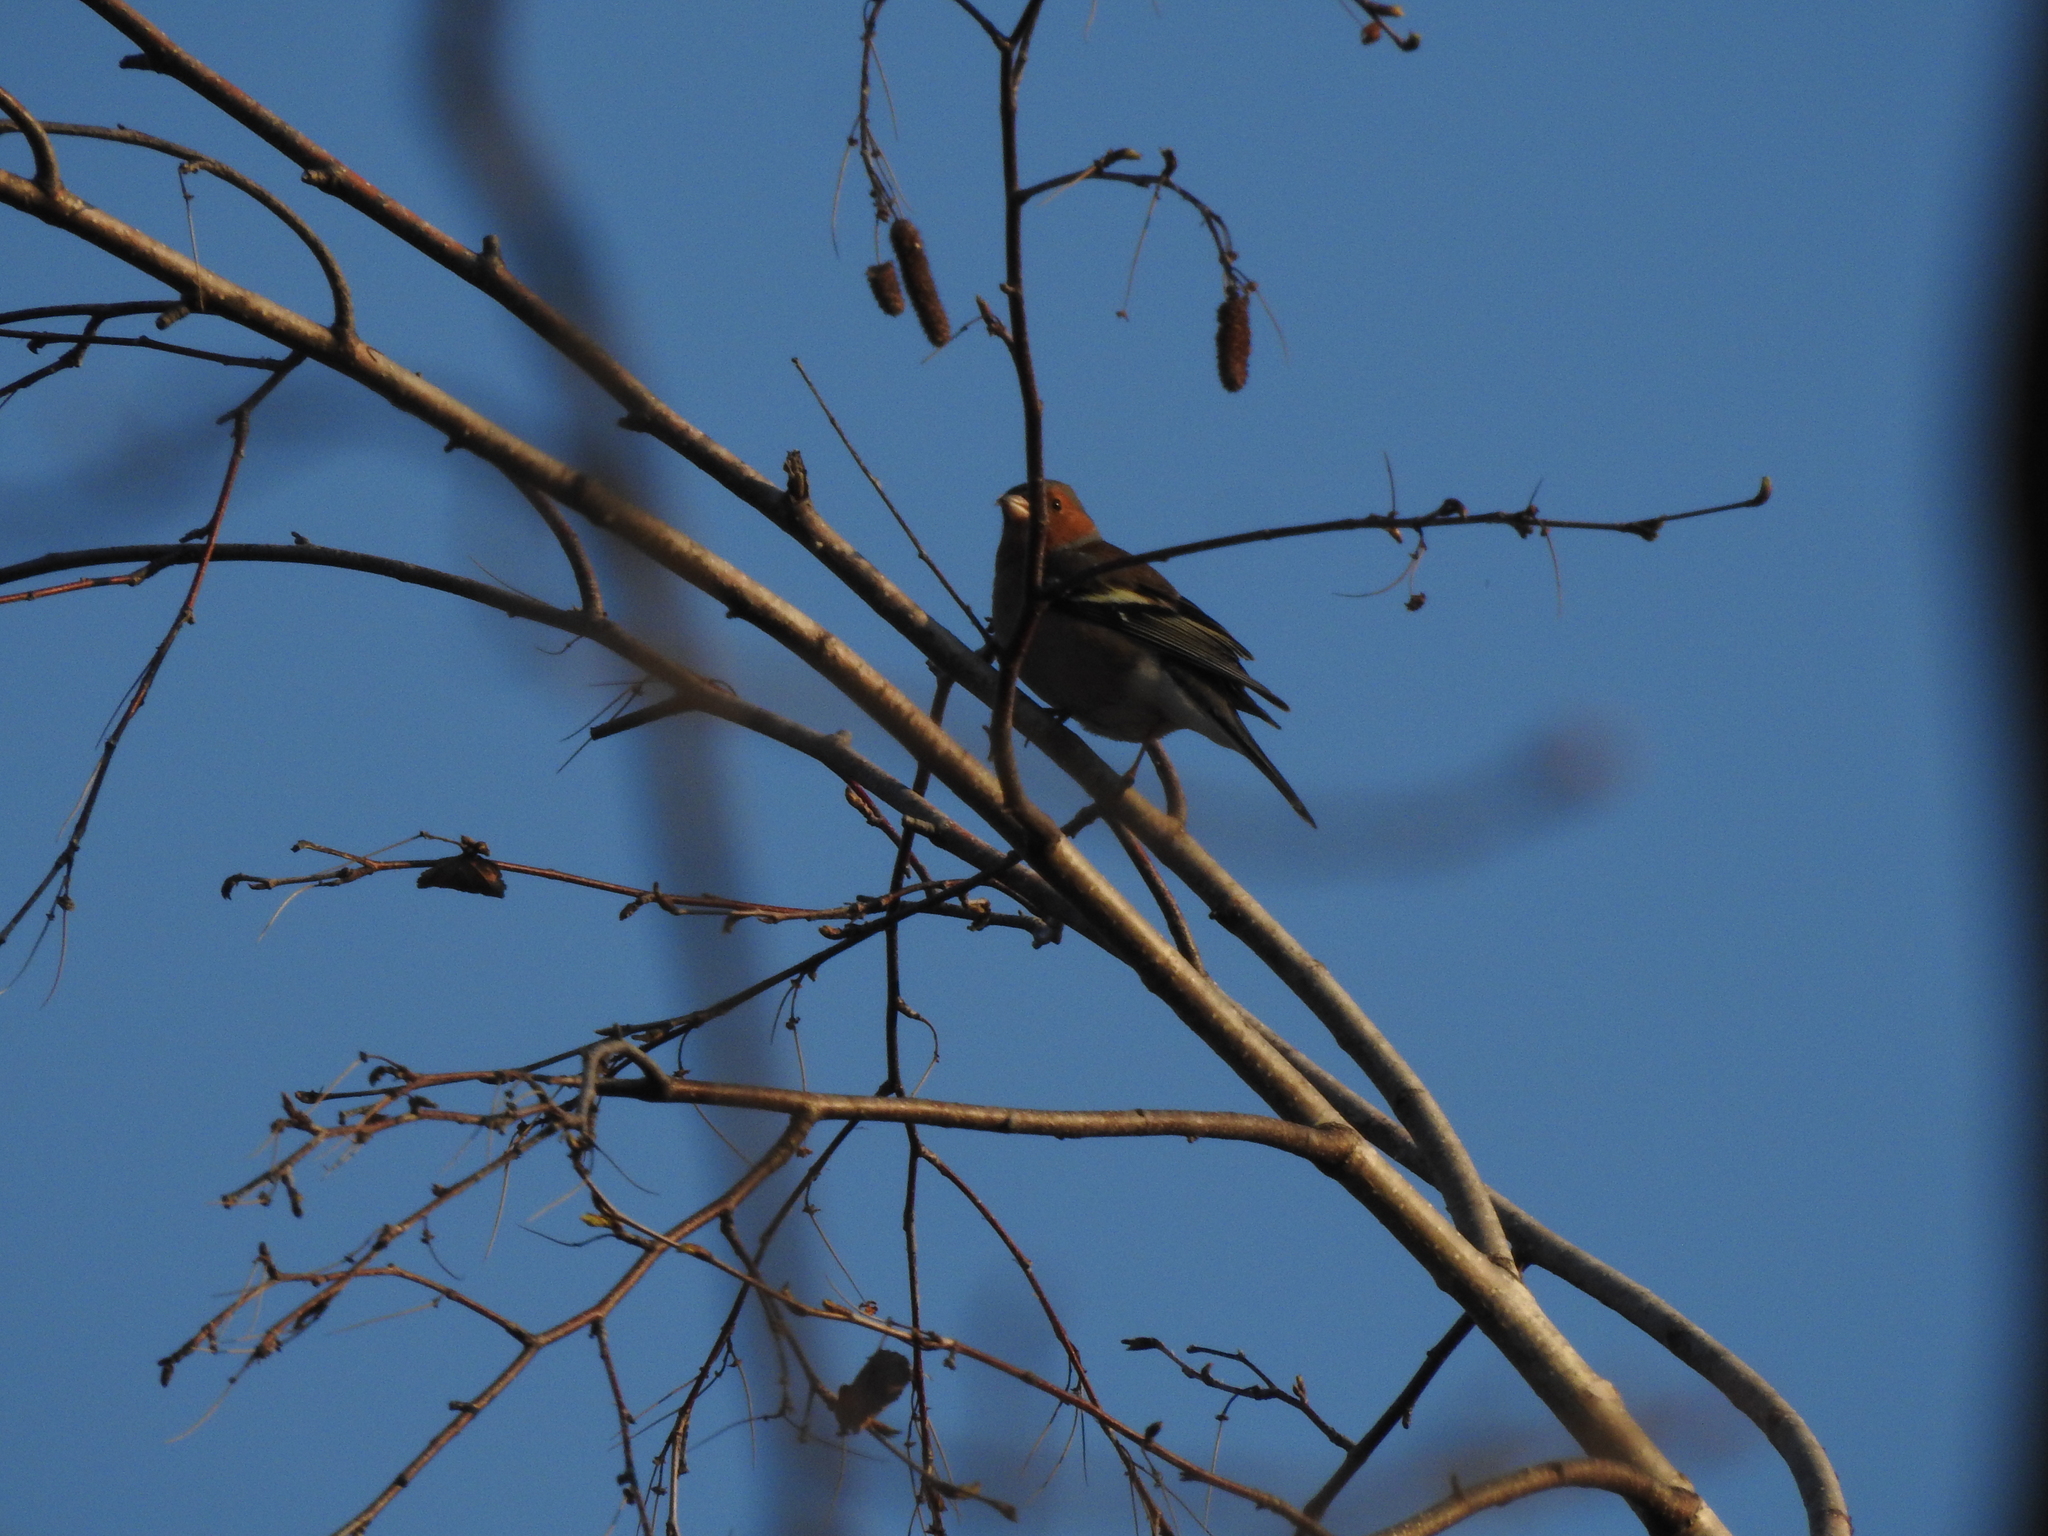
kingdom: Animalia
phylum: Chordata
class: Aves
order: Passeriformes
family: Fringillidae
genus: Fringilla
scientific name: Fringilla coelebs
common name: Common chaffinch
